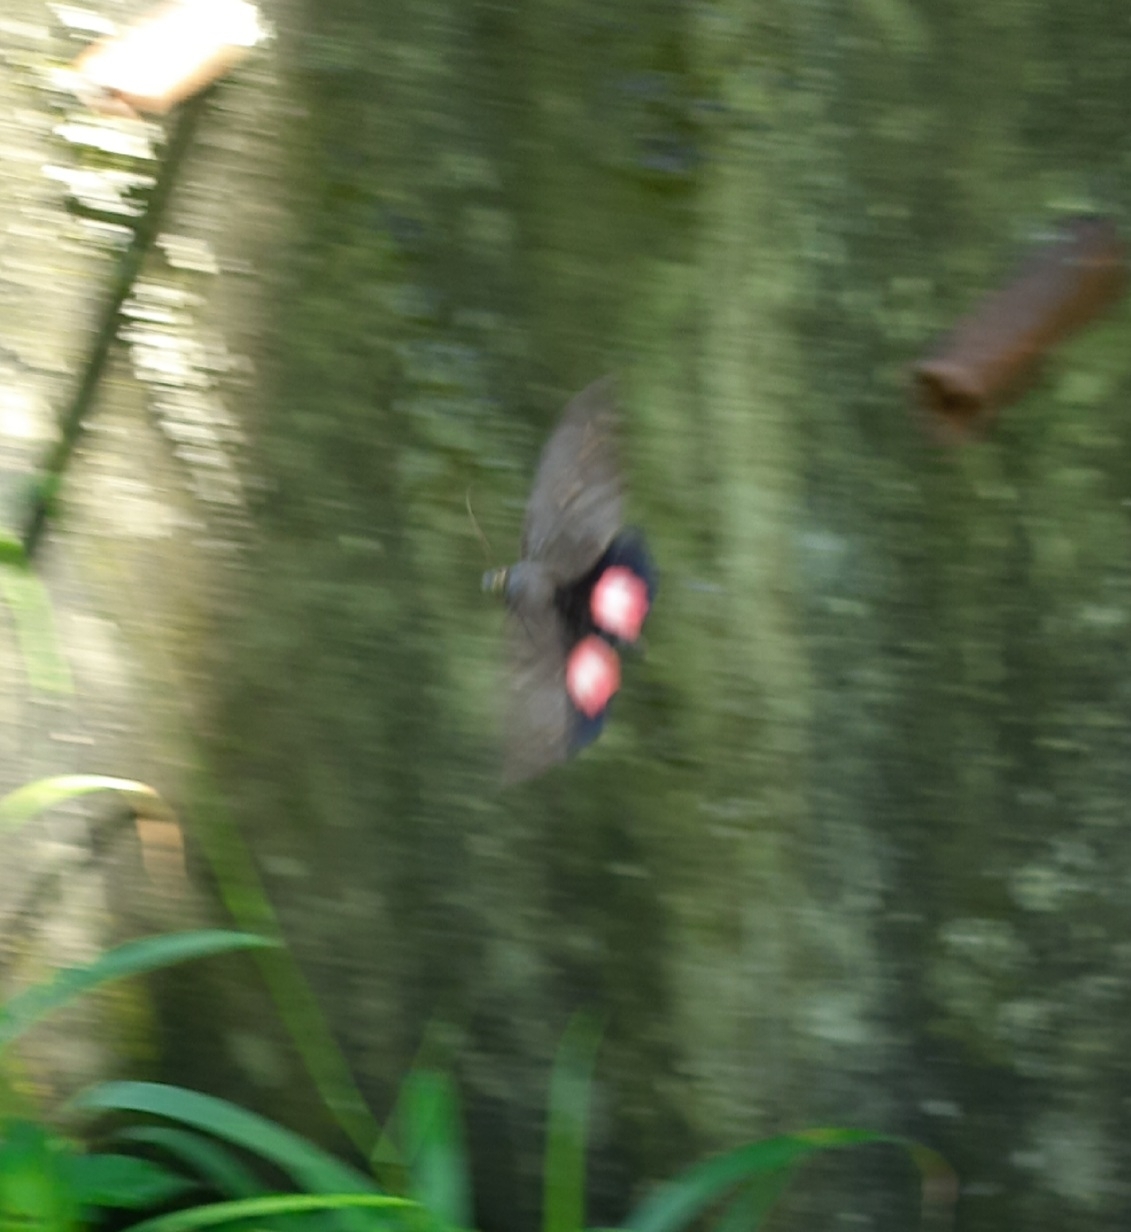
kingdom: Animalia
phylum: Arthropoda
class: Insecta
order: Lepidoptera
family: Erebidae
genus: Phyllodes
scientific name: Phyllodes verhuelli
